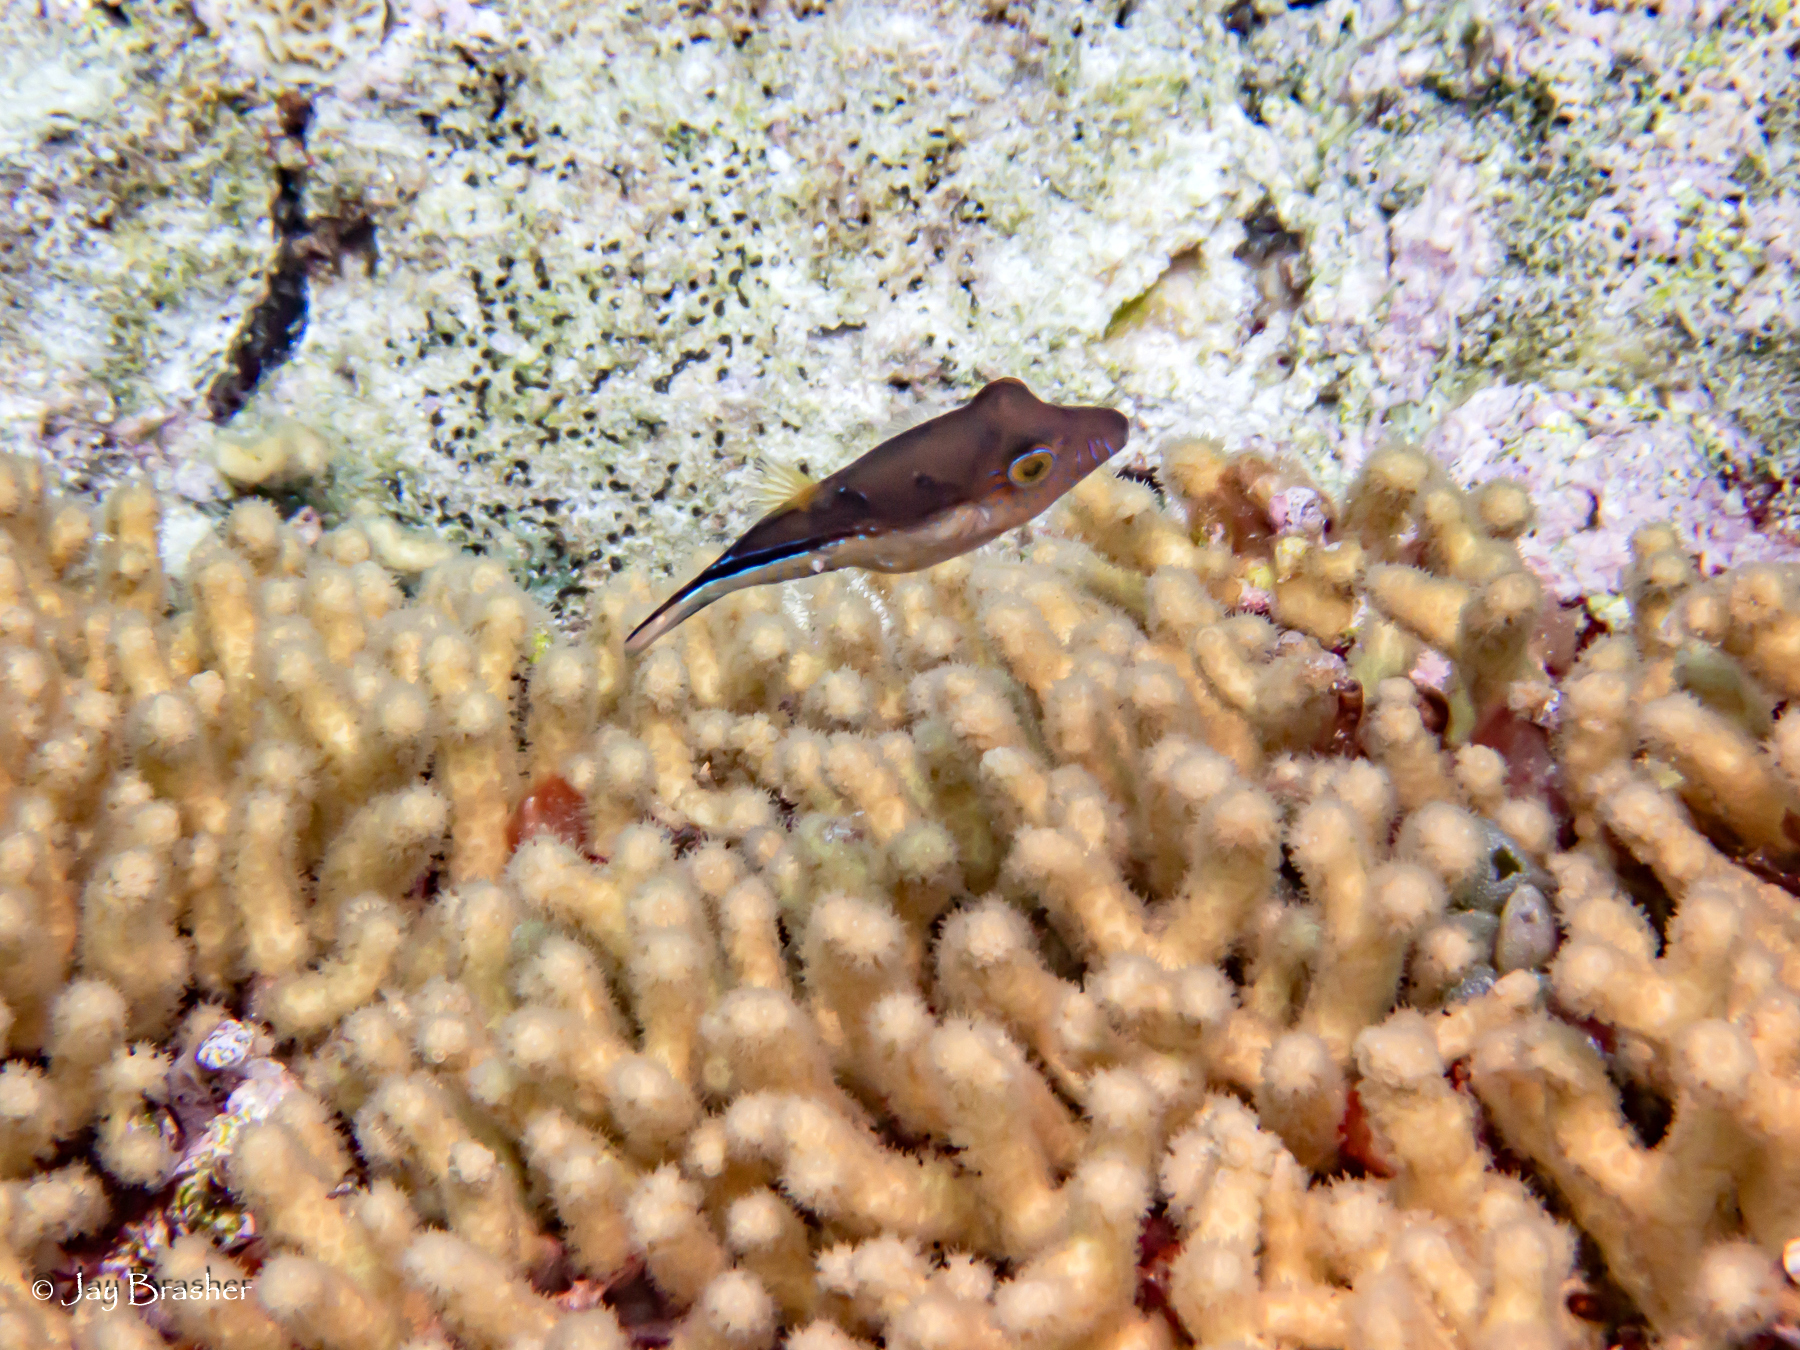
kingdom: Animalia
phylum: Chordata
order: Tetraodontiformes
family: Tetraodontidae
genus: Canthigaster
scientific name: Canthigaster rostrata
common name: Caribbean sharpnose-puffer
